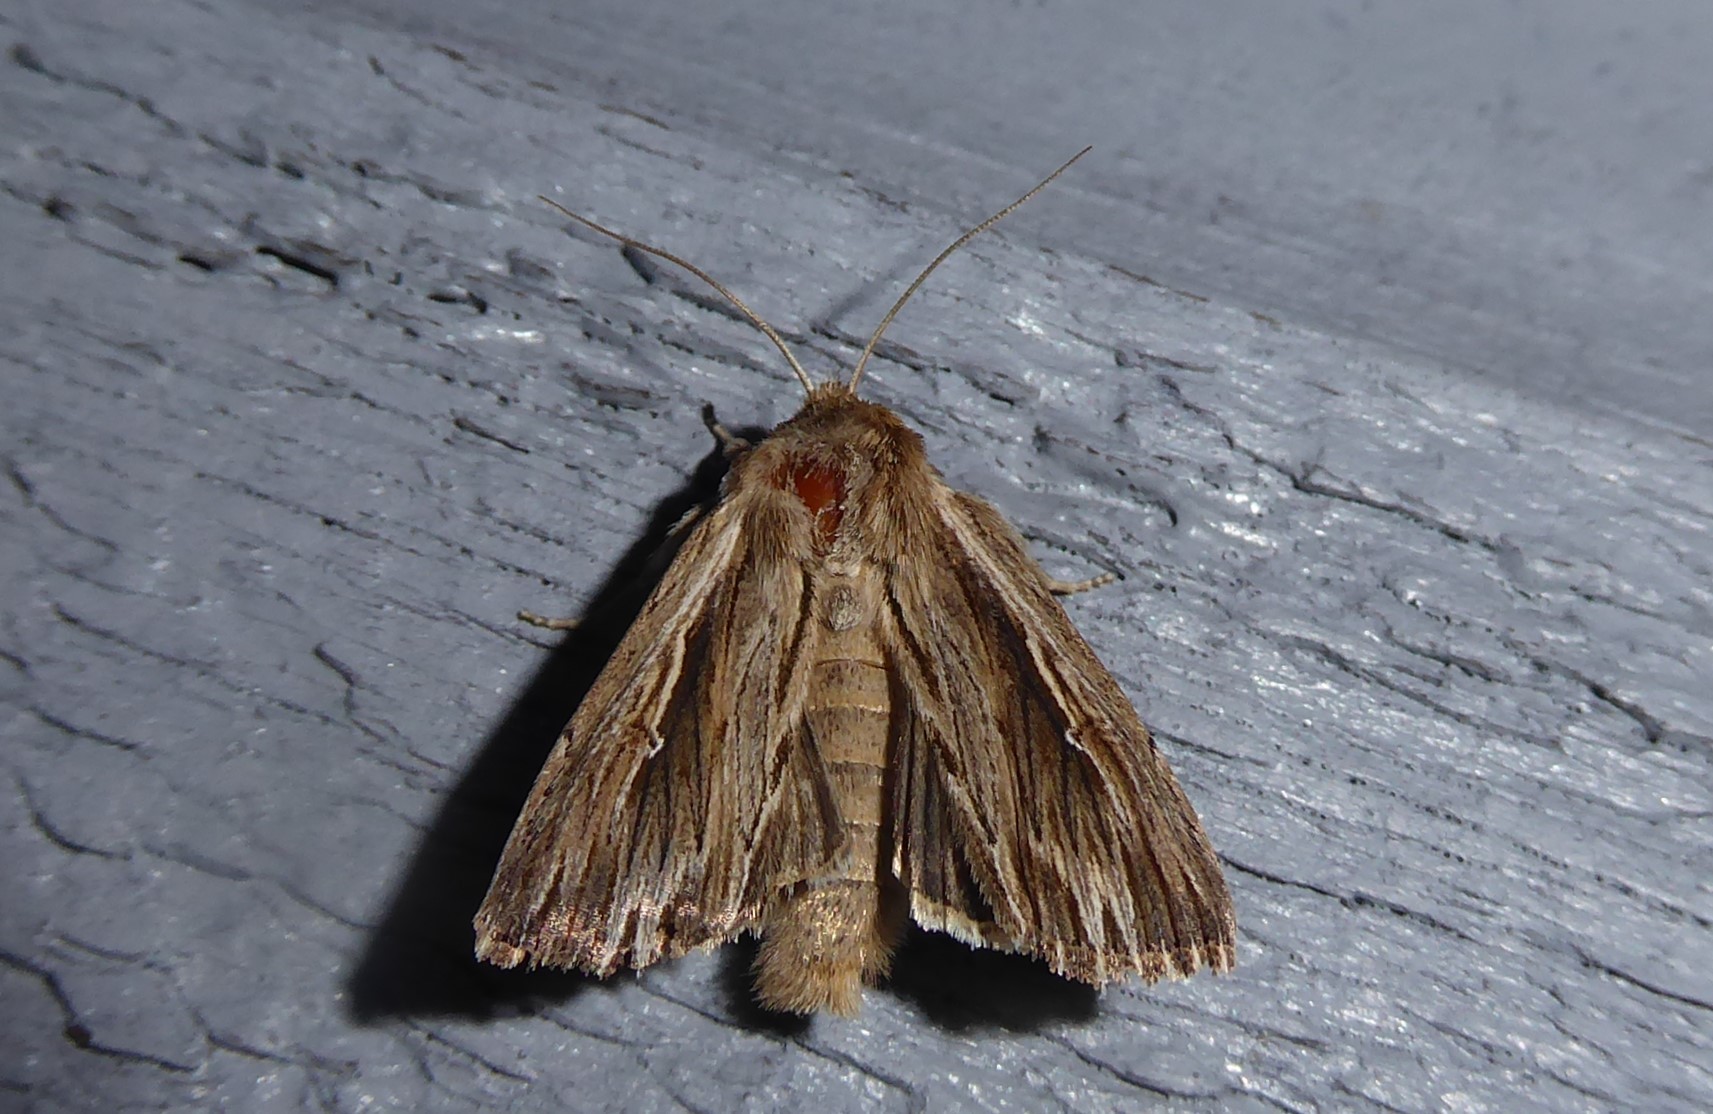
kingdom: Animalia
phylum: Arthropoda
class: Insecta
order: Lepidoptera
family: Noctuidae
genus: Persectania
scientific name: Persectania aversa
